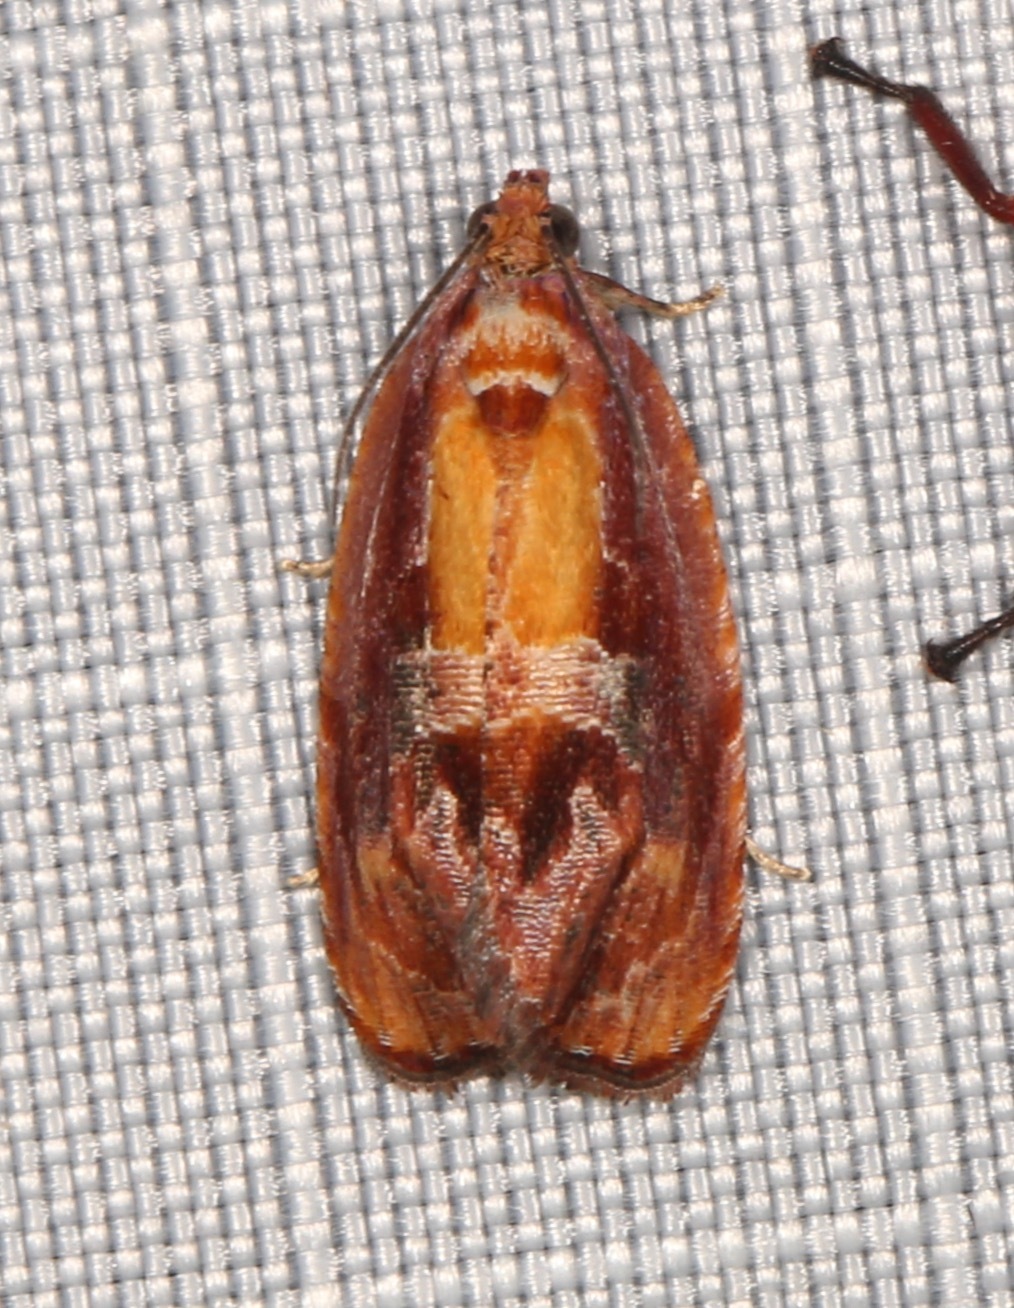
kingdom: Animalia
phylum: Arthropoda
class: Insecta
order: Lepidoptera
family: Tortricidae
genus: Zomaria
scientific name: Zomaria rosaochreana
